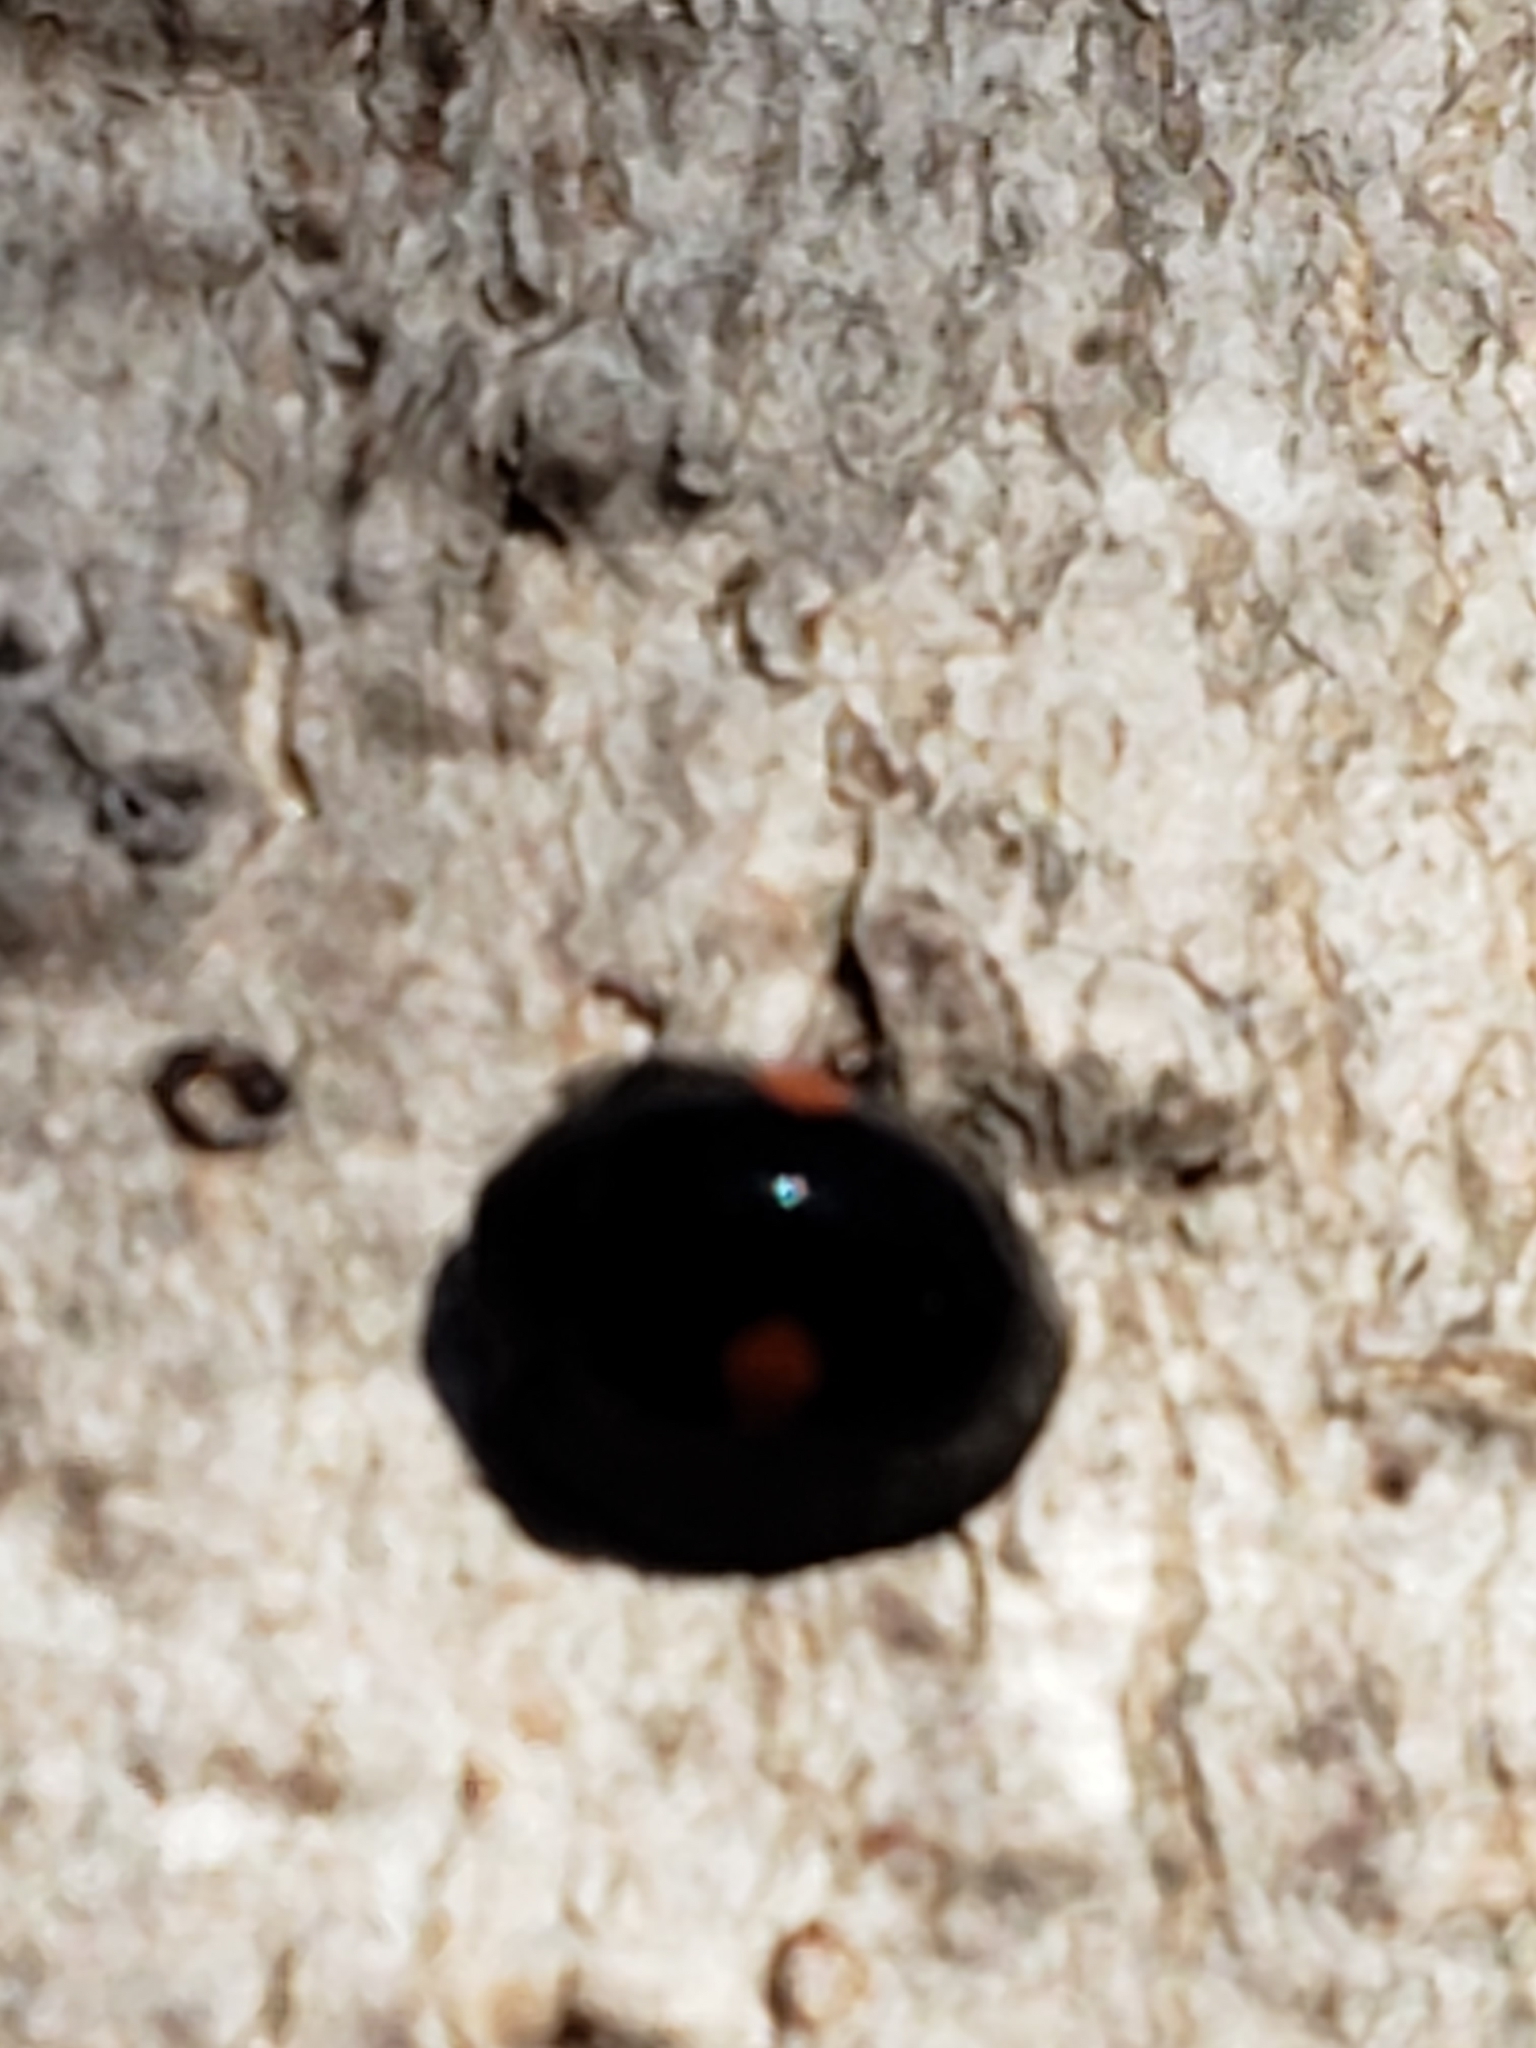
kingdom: Animalia
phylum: Arthropoda
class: Insecta
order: Coleoptera
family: Coccinellidae
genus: Chilocorus
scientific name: Chilocorus stigma
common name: Twicestabbed lady beetle
